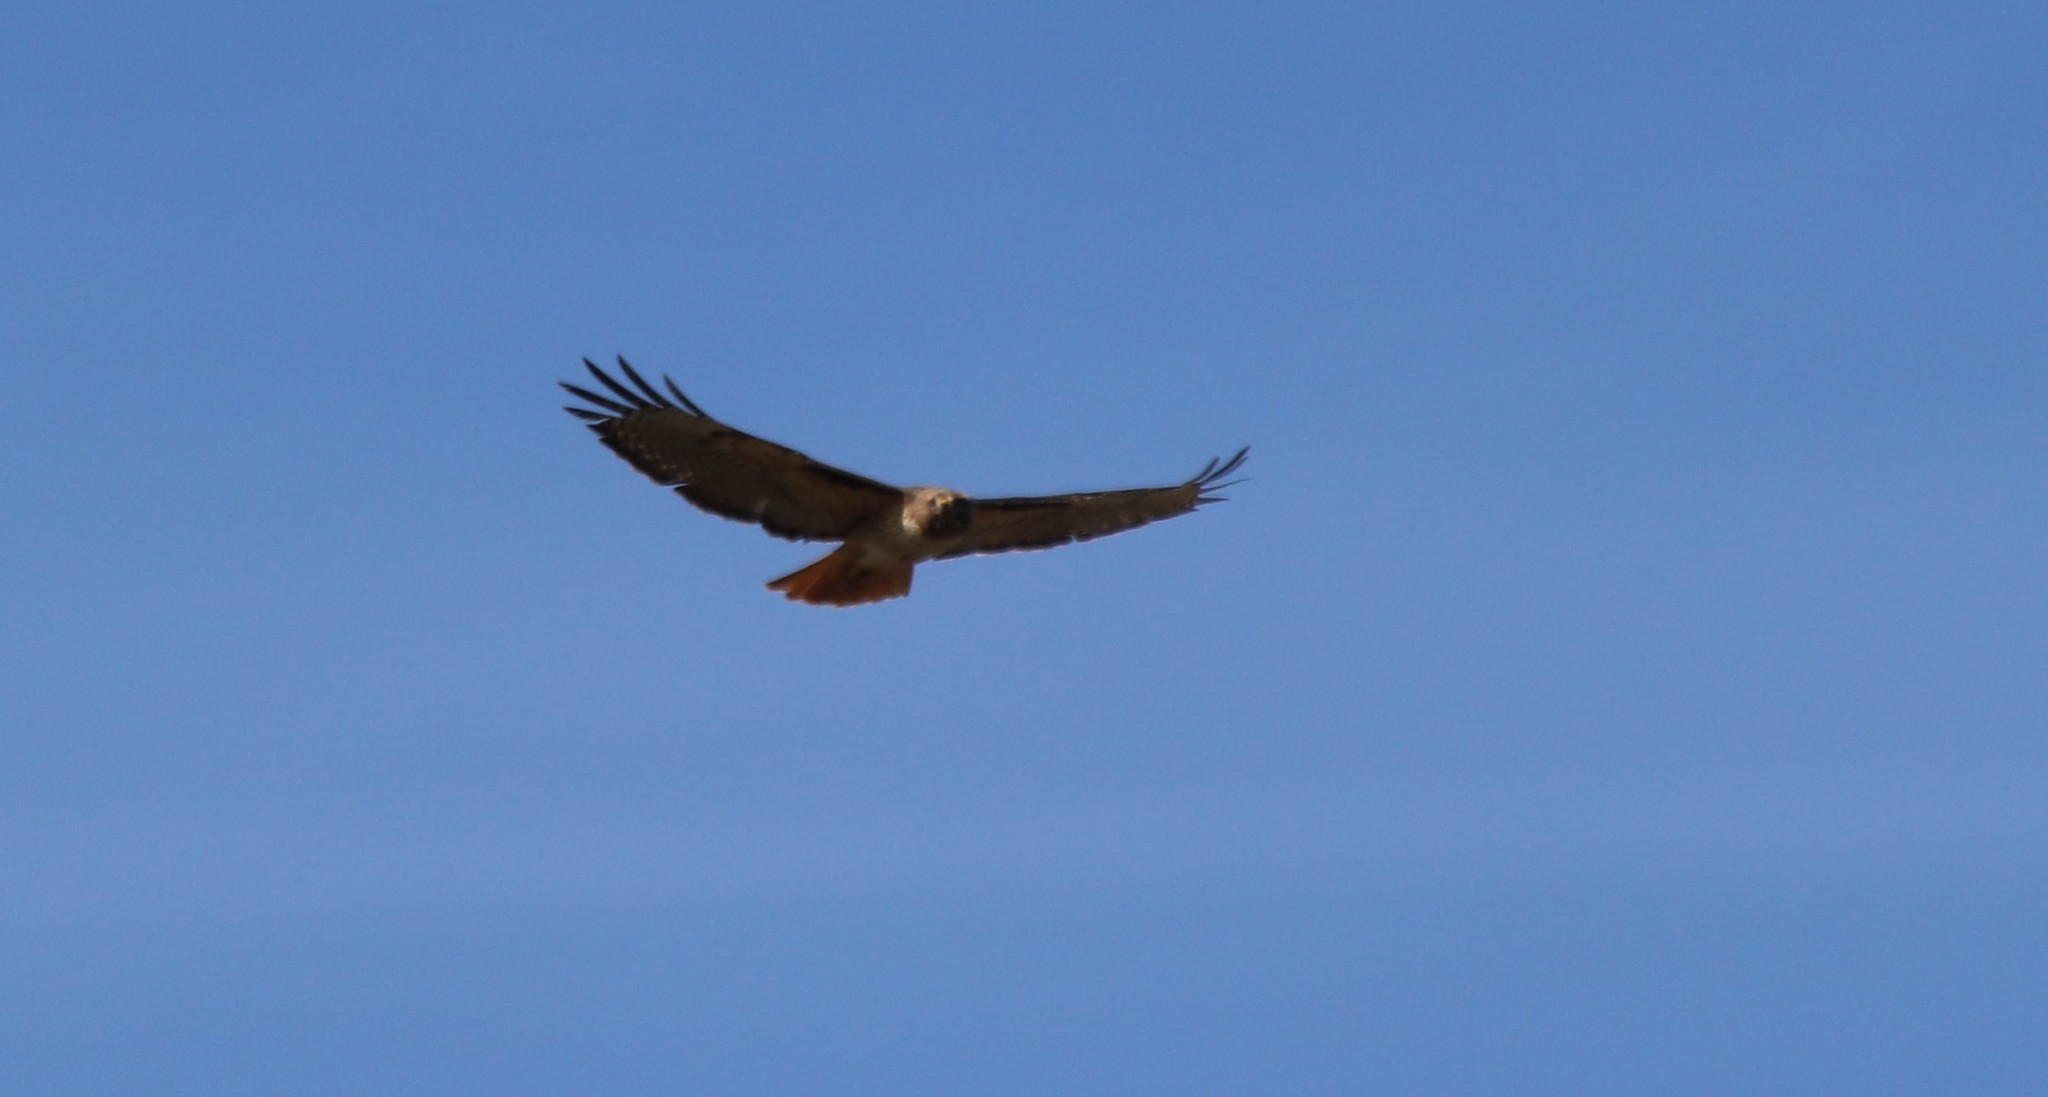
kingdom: Animalia
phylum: Chordata
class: Aves
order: Accipitriformes
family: Accipitridae
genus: Buteo
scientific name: Buteo jamaicensis
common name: Red-tailed hawk
